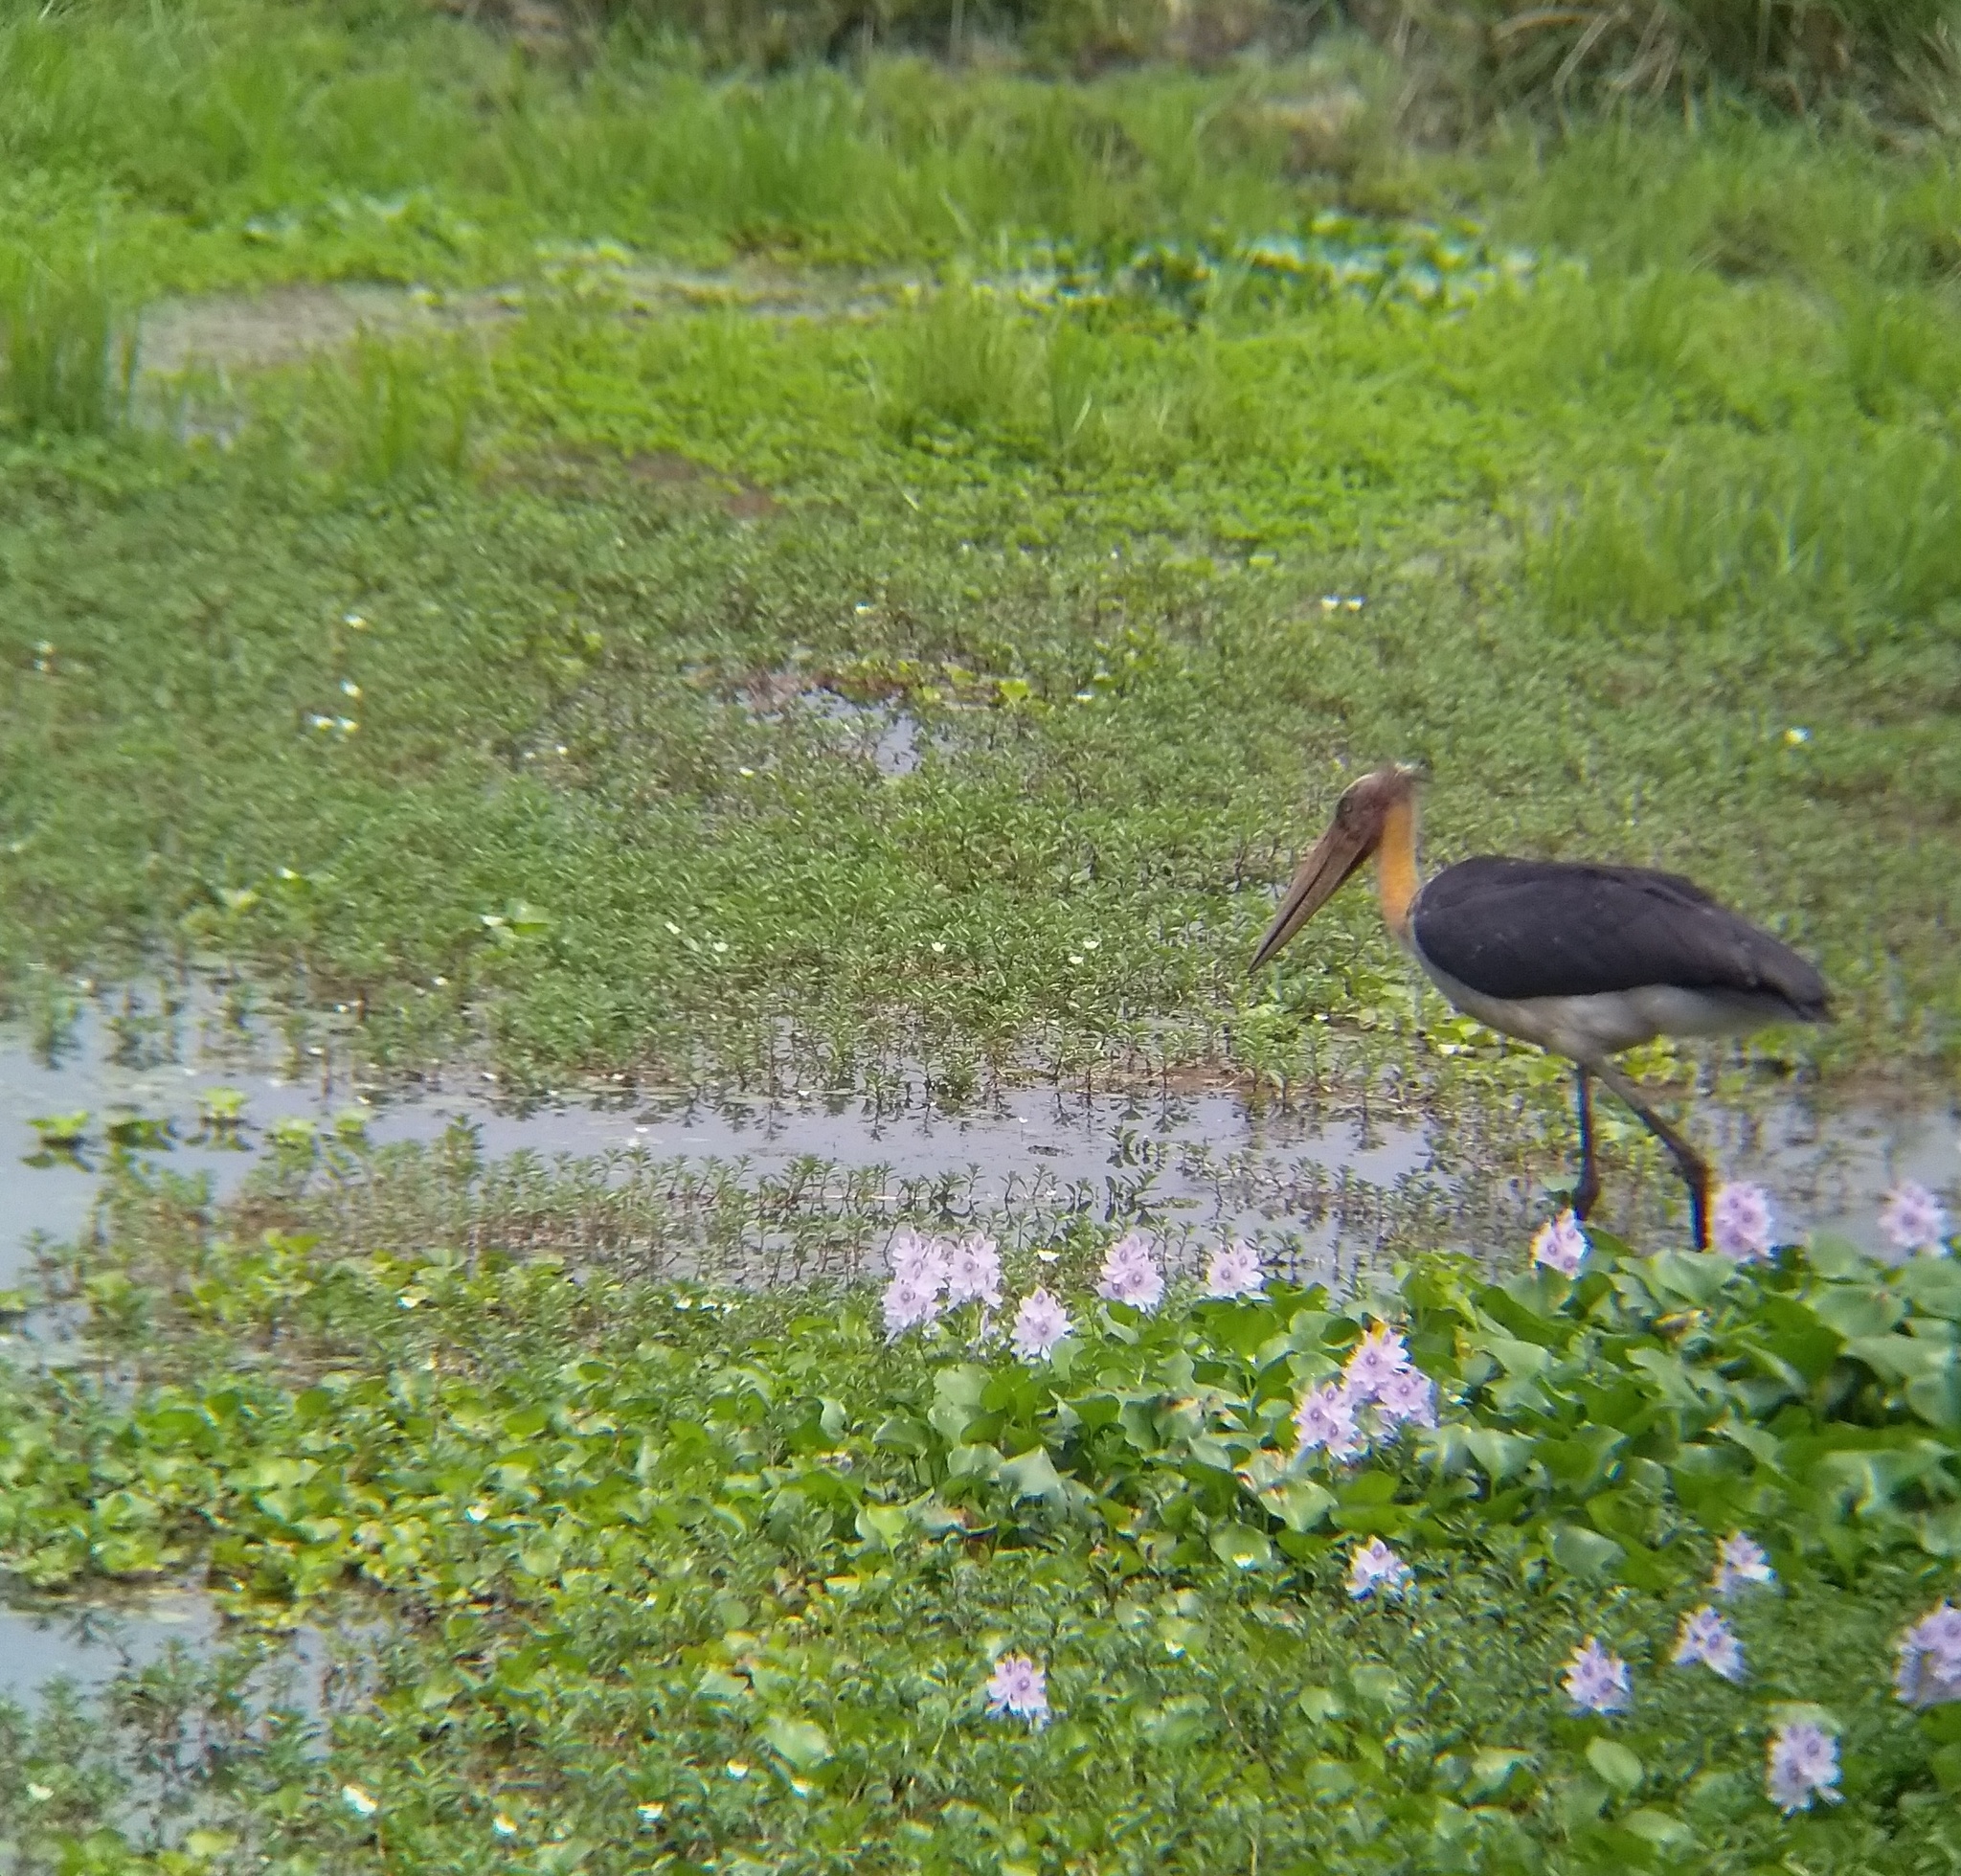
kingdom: Animalia
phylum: Chordata
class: Aves
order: Ciconiiformes
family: Ciconiidae
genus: Leptoptilos
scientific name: Leptoptilos javanicus
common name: Lesser adjutant
